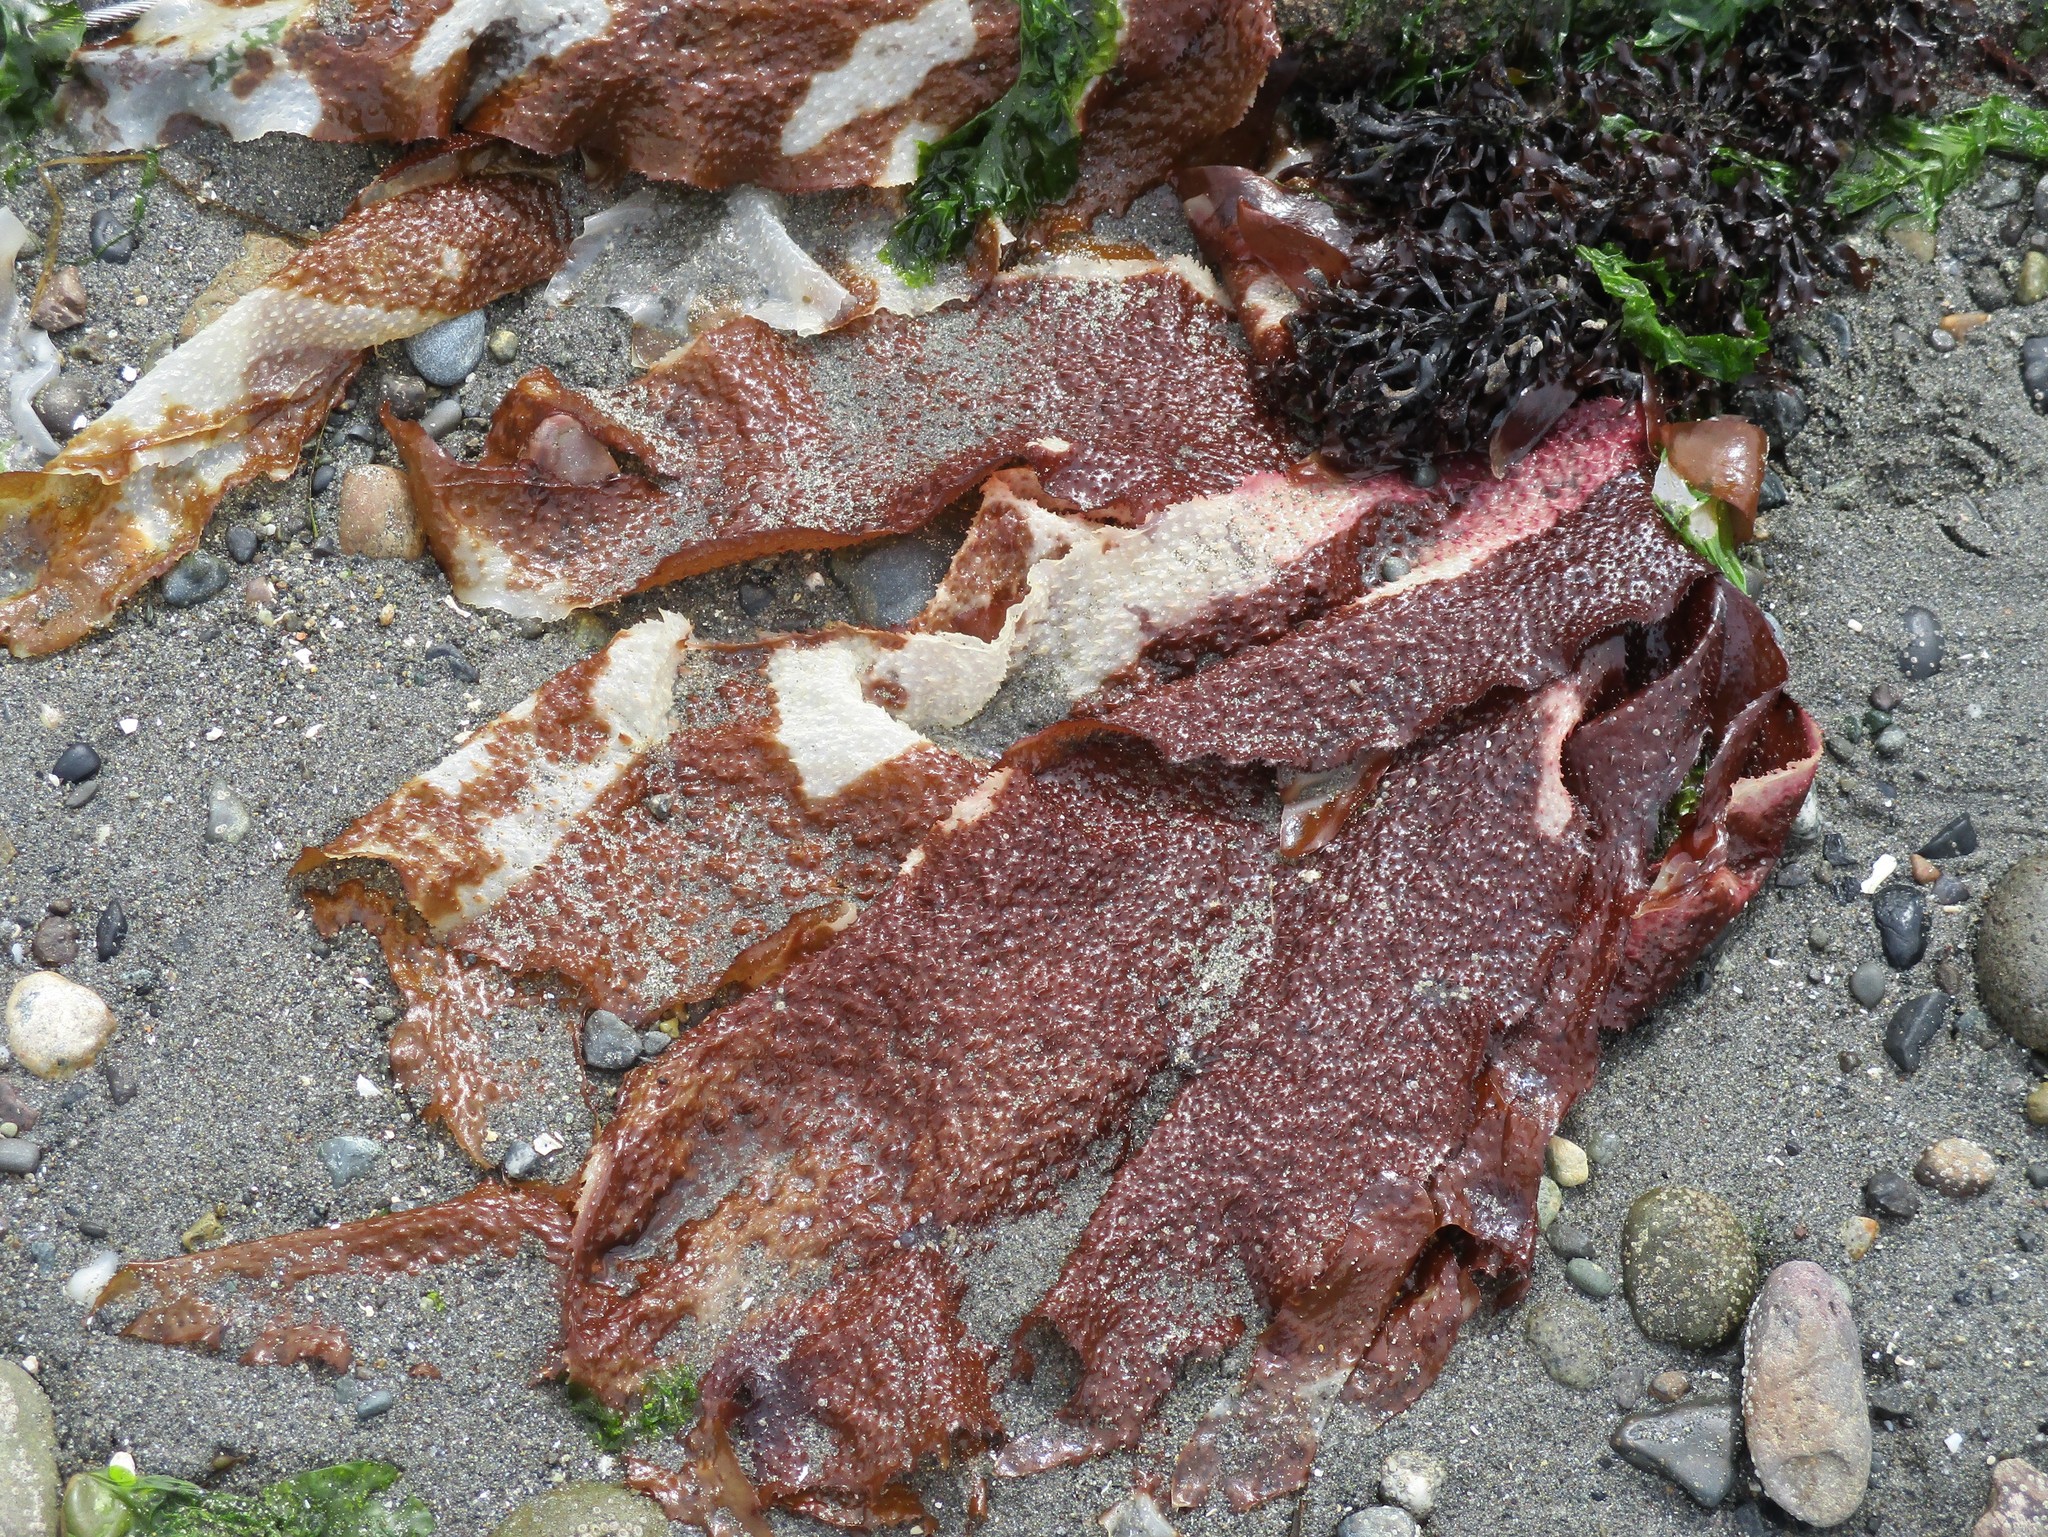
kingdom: Plantae
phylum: Rhodophyta
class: Florideophyceae
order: Gigartinales
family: Gigartinaceae
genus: Chondracanthus
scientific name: Chondracanthus exasperatus
